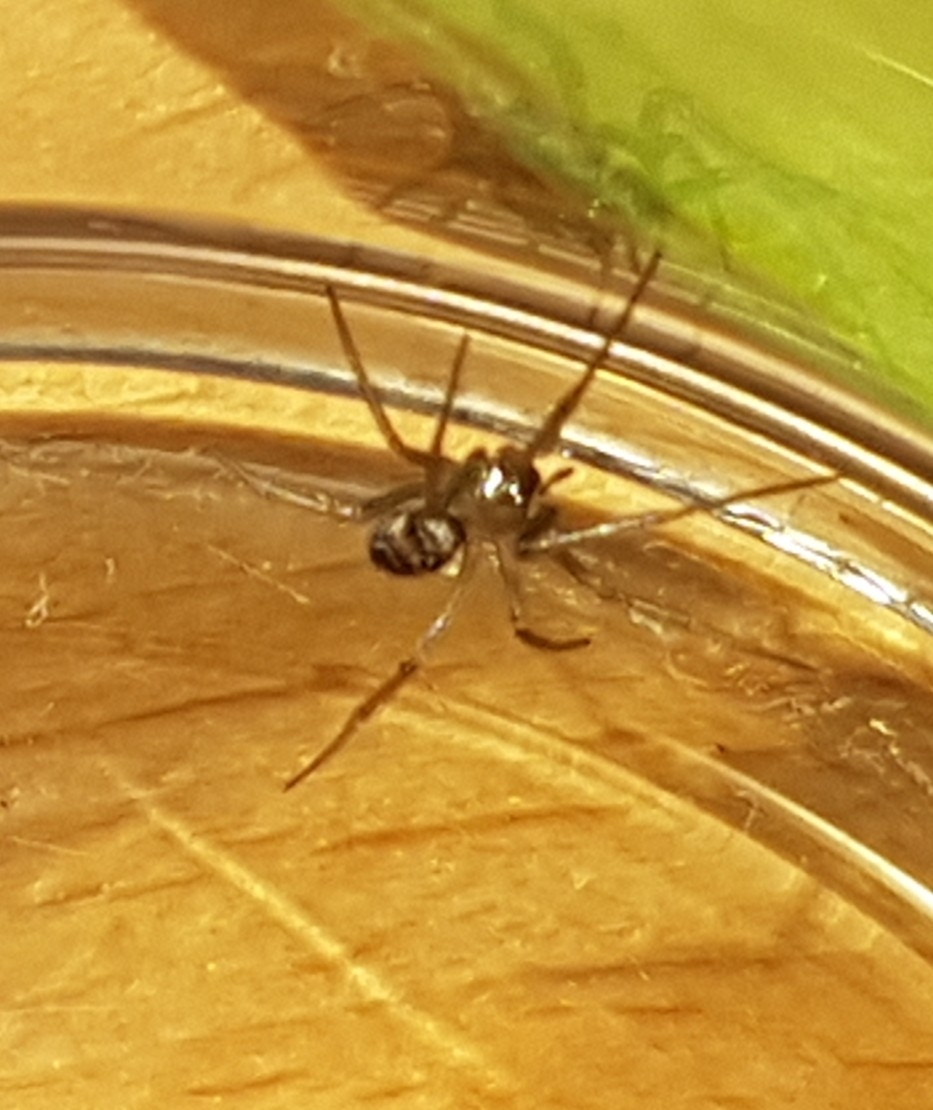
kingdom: Animalia
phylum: Arthropoda
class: Arachnida
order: Araneae
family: Theridiidae
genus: Steatoda
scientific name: Steatoda grossa
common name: False black widow
